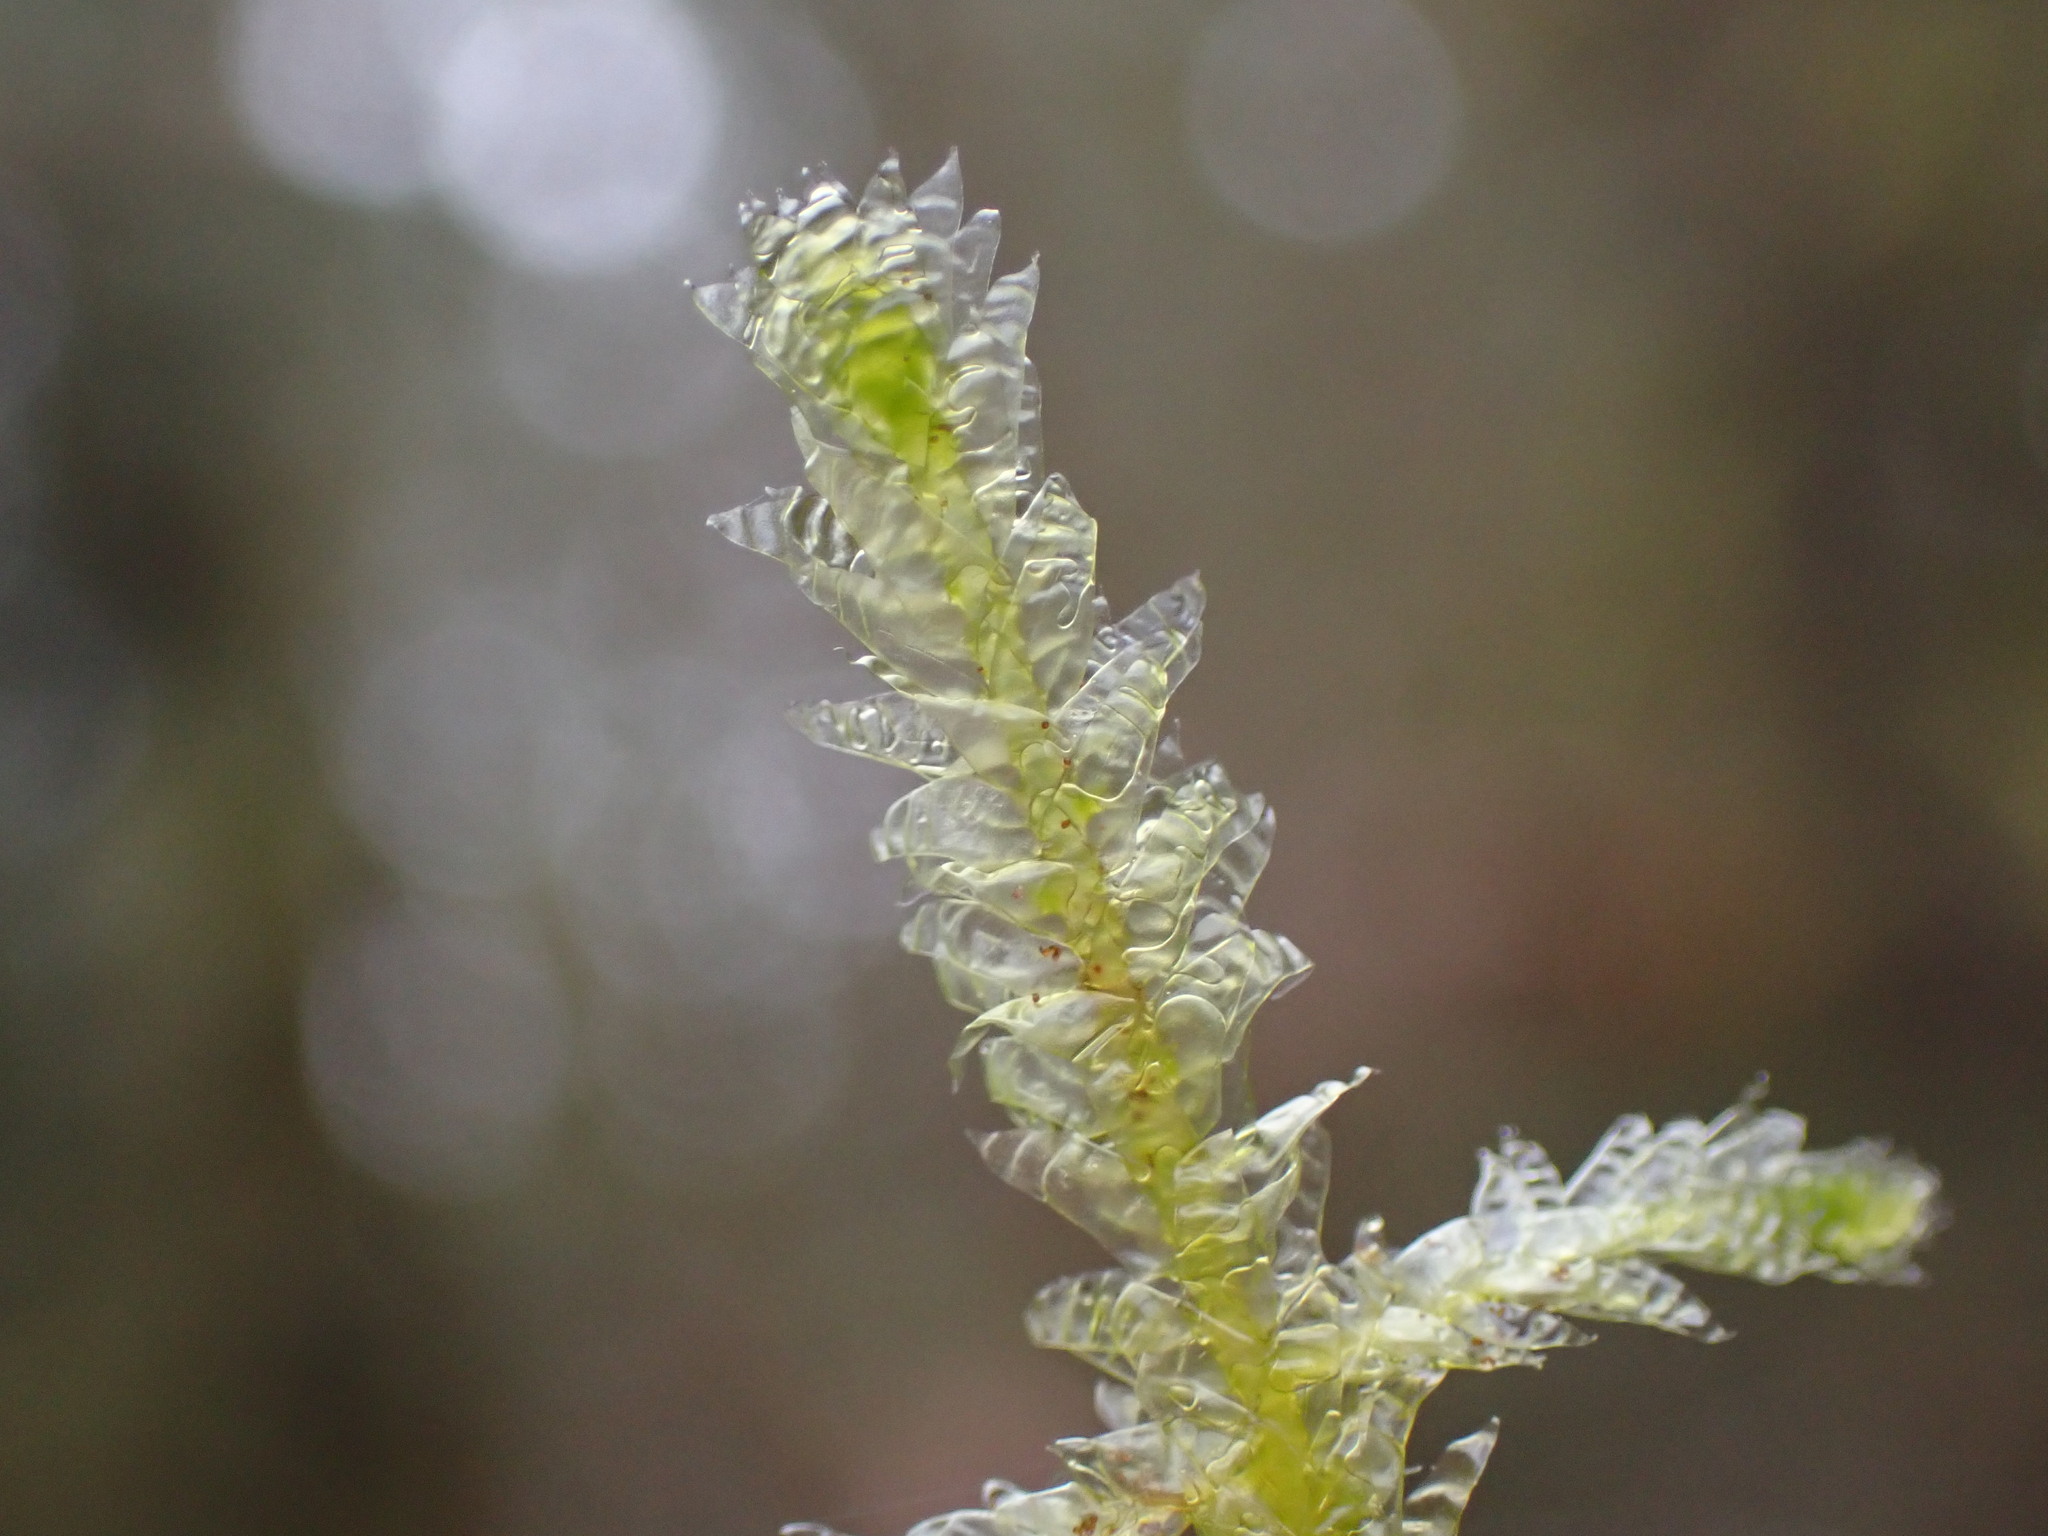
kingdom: Plantae
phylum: Bryophyta
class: Bryopsida
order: Hypnales
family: Neckeraceae
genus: Neckera
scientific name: Neckera douglasii
